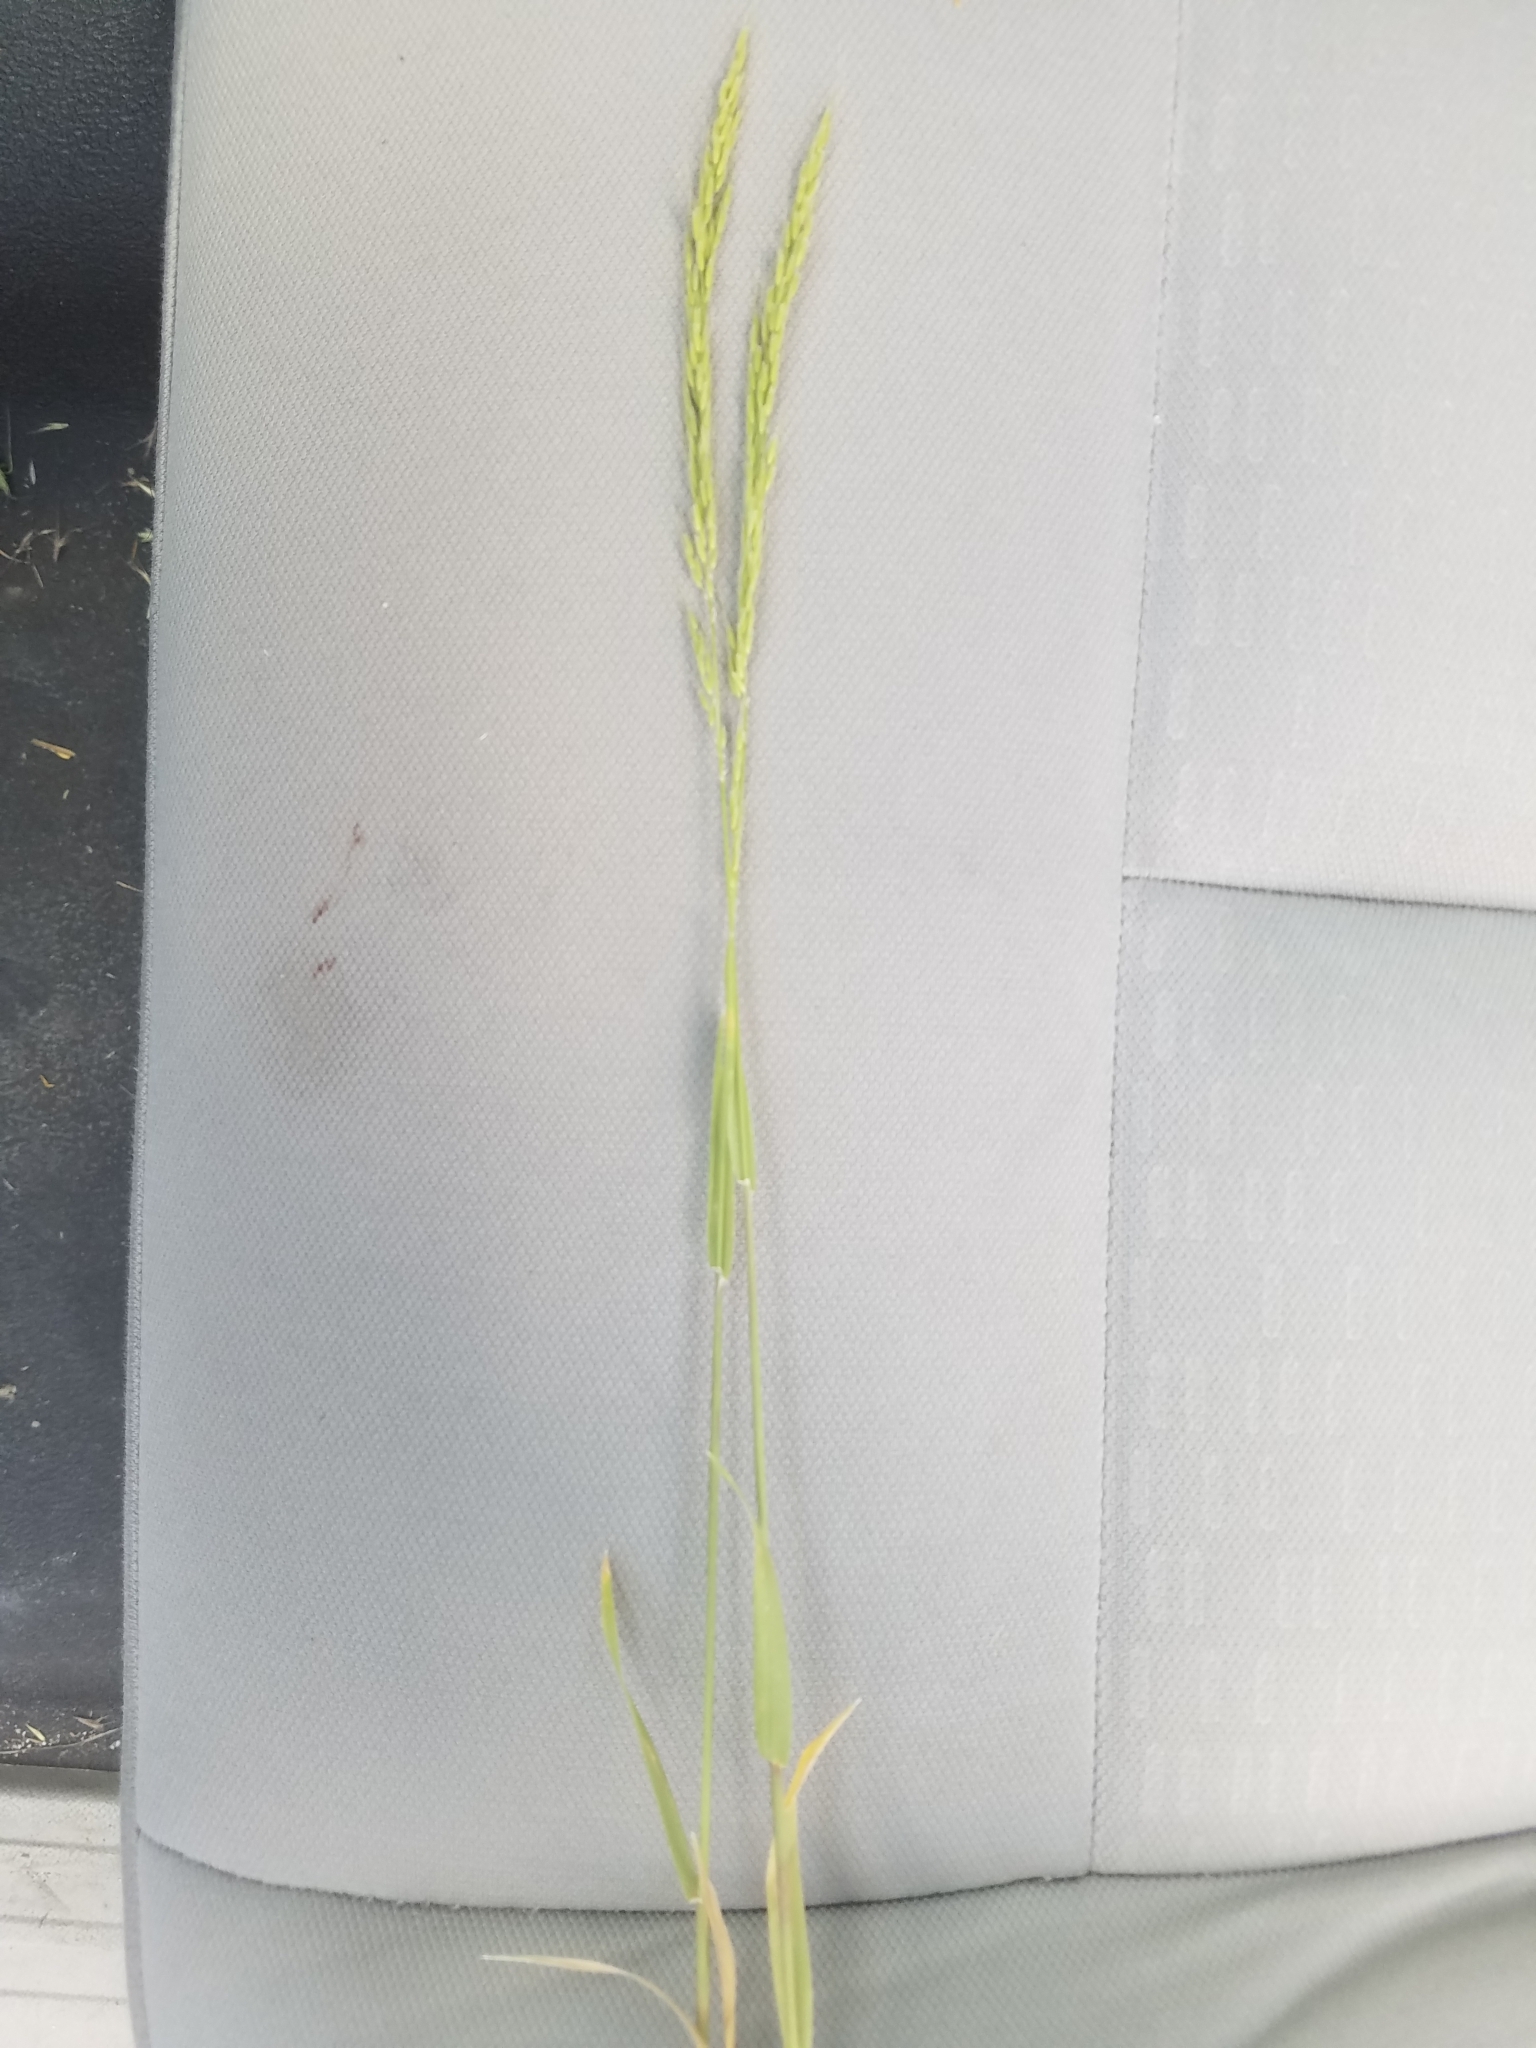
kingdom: Plantae
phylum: Tracheophyta
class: Liliopsida
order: Poales
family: Poaceae
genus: Limnodea
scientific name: Limnodea arkansana
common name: Ozark-grass
